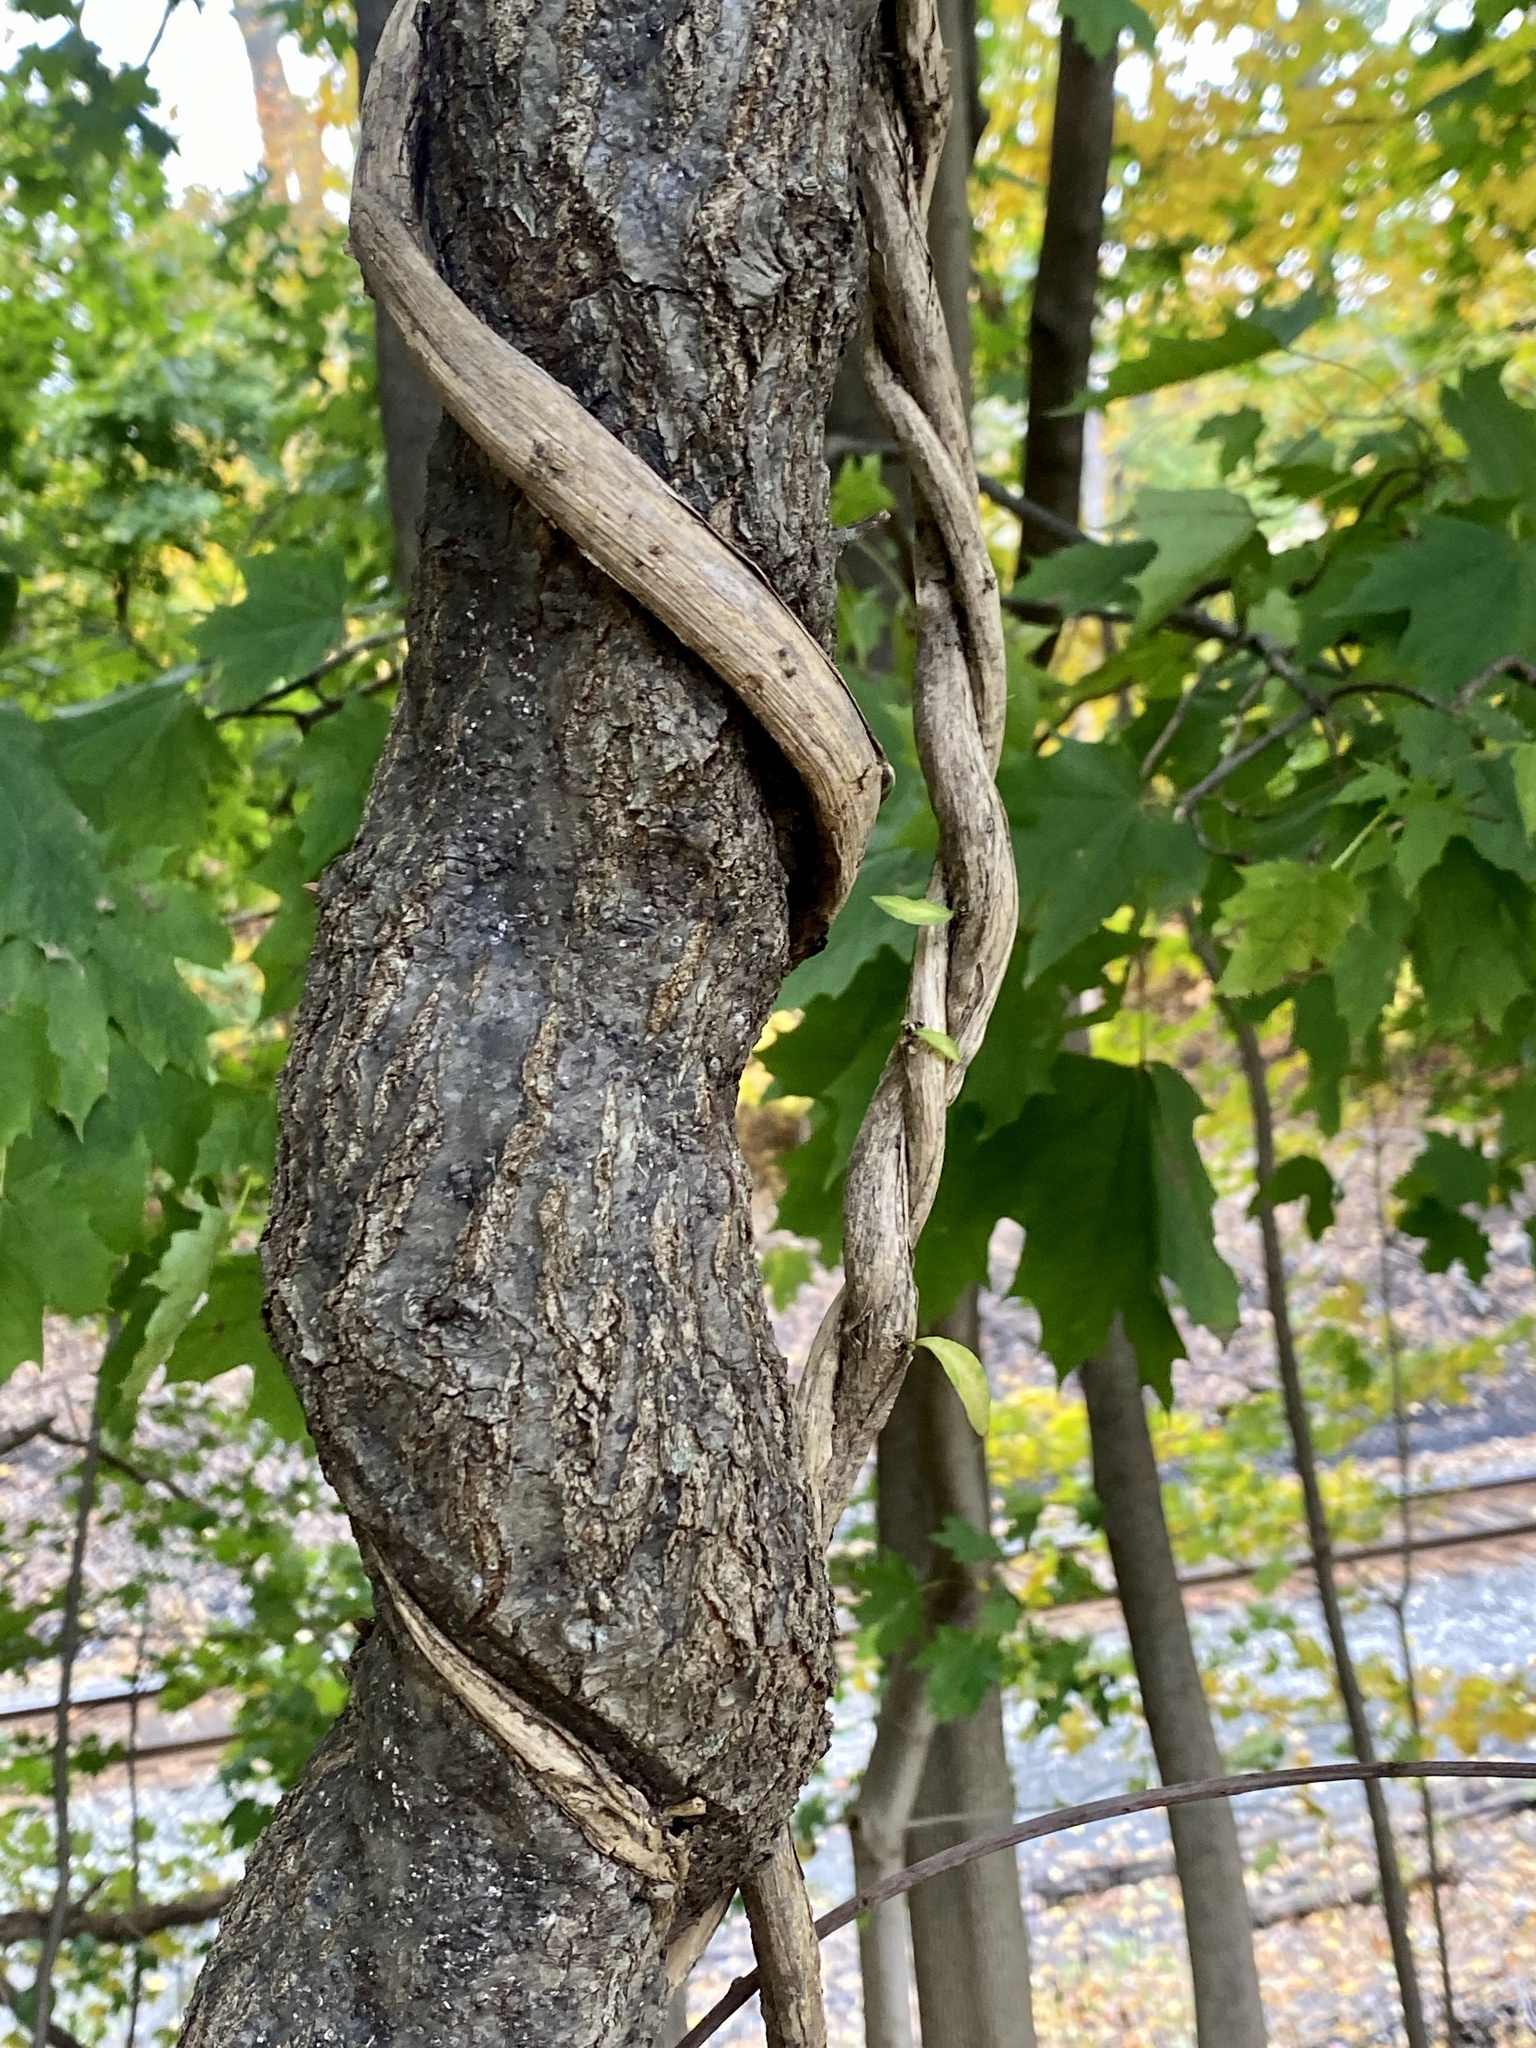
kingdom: Plantae
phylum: Tracheophyta
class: Magnoliopsida
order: Celastrales
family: Celastraceae
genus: Celastrus
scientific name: Celastrus orbiculatus
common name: Oriental bittersweet
